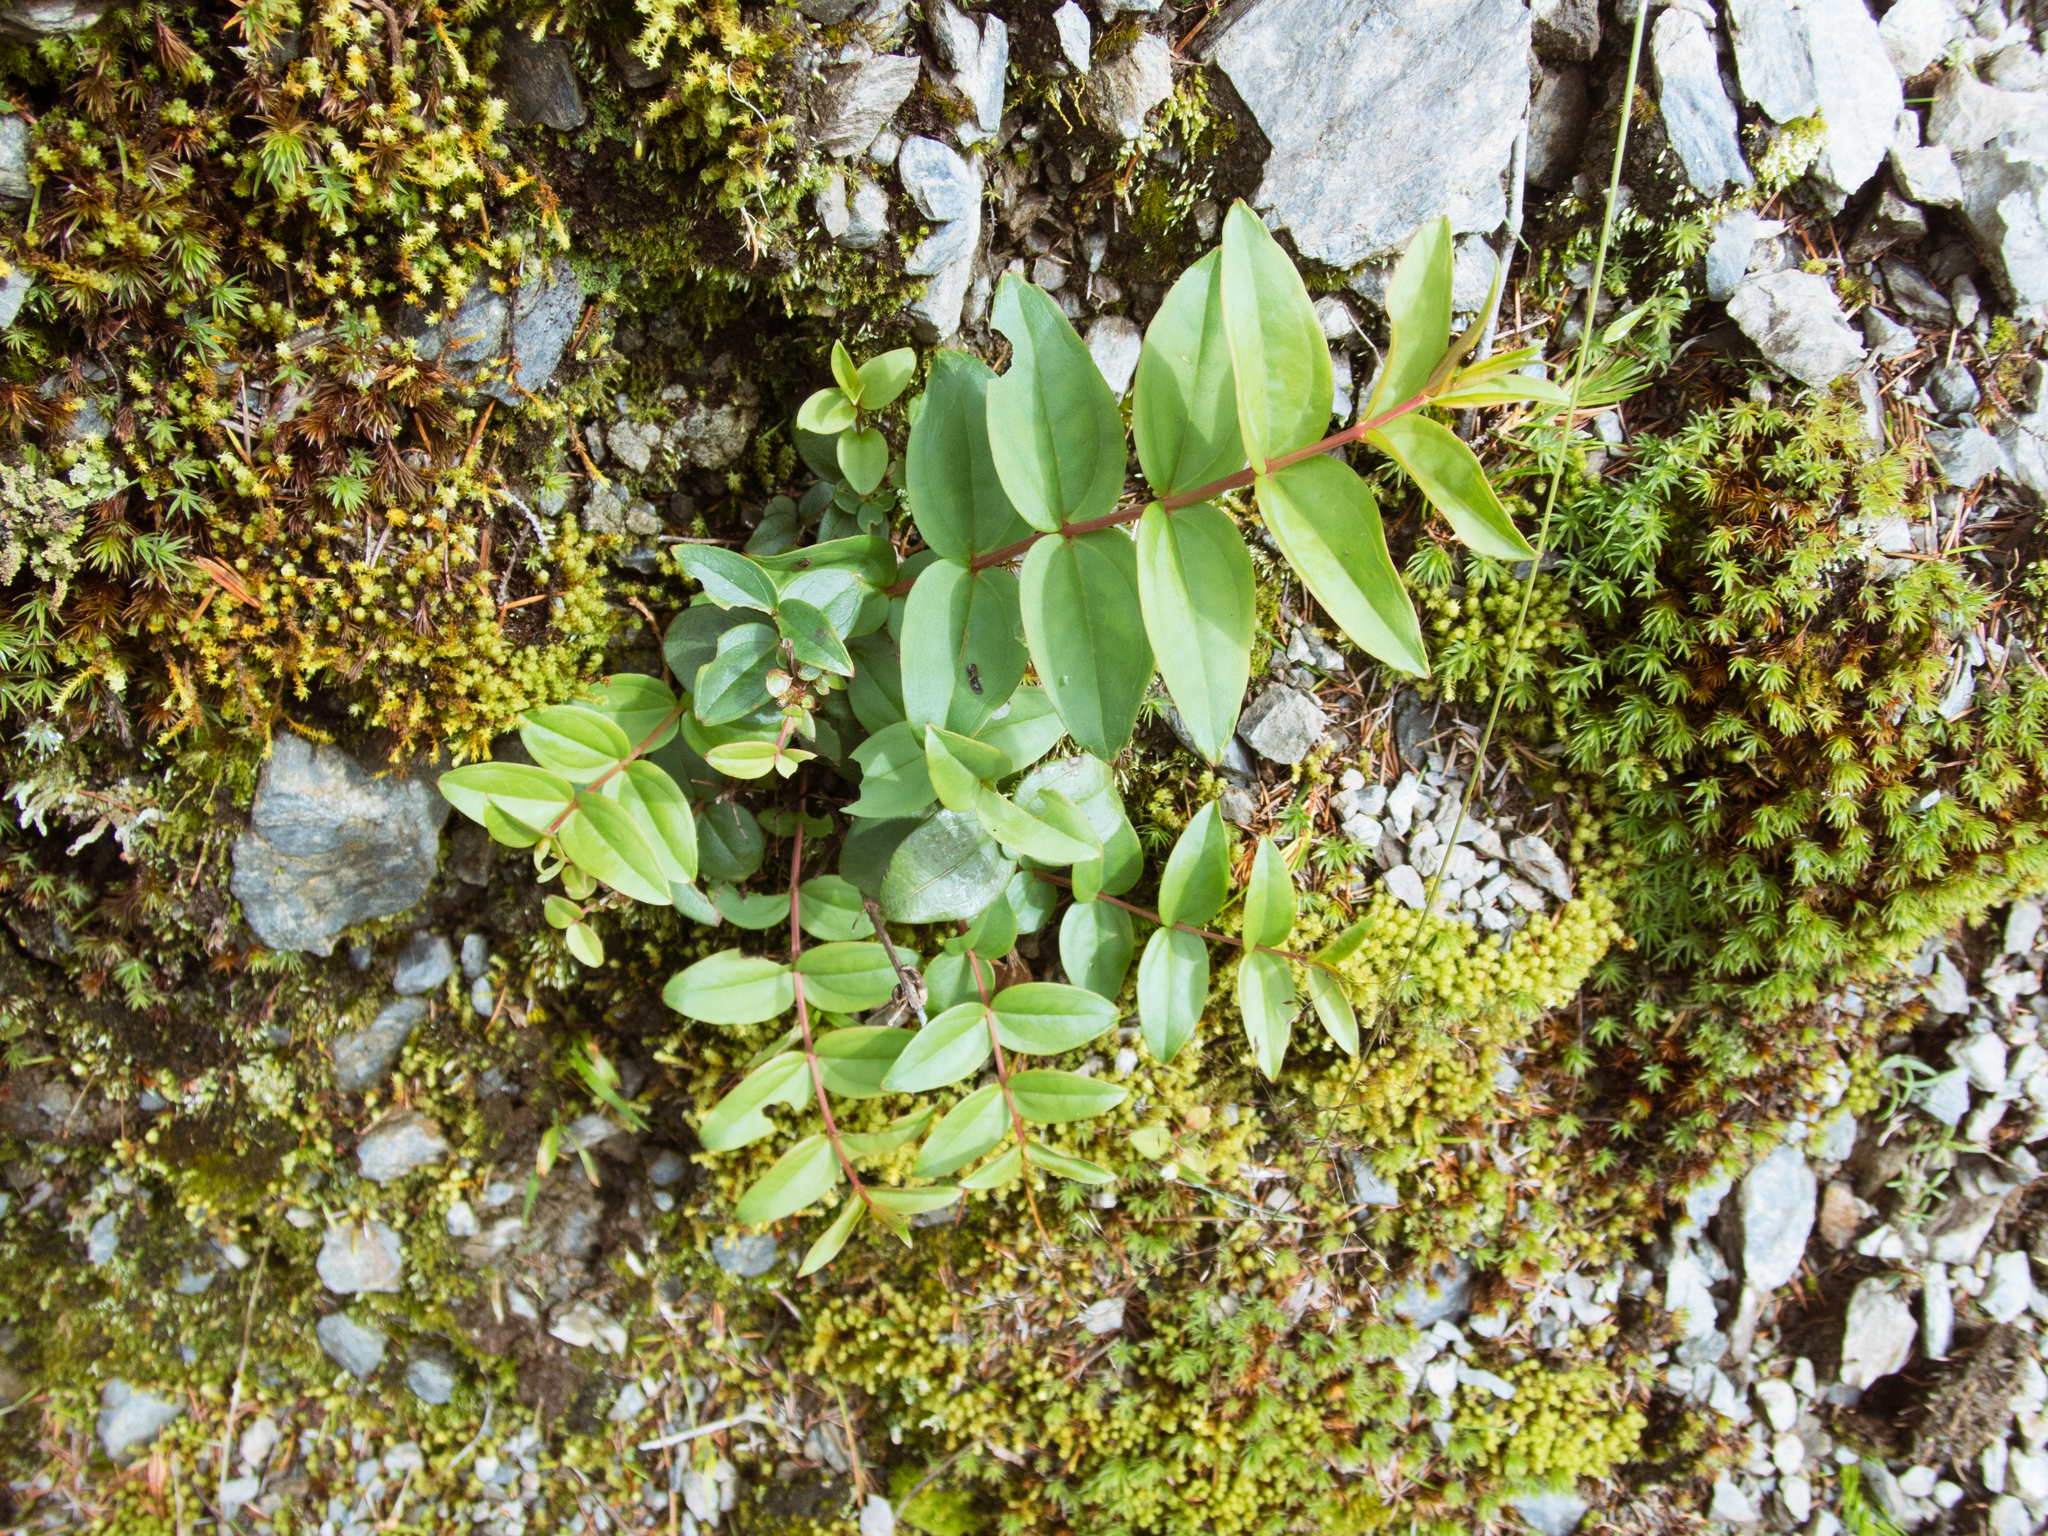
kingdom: Plantae
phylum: Tracheophyta
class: Magnoliopsida
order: Cucurbitales
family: Coriariaceae
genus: Coriaria
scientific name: Coriaria japonica
